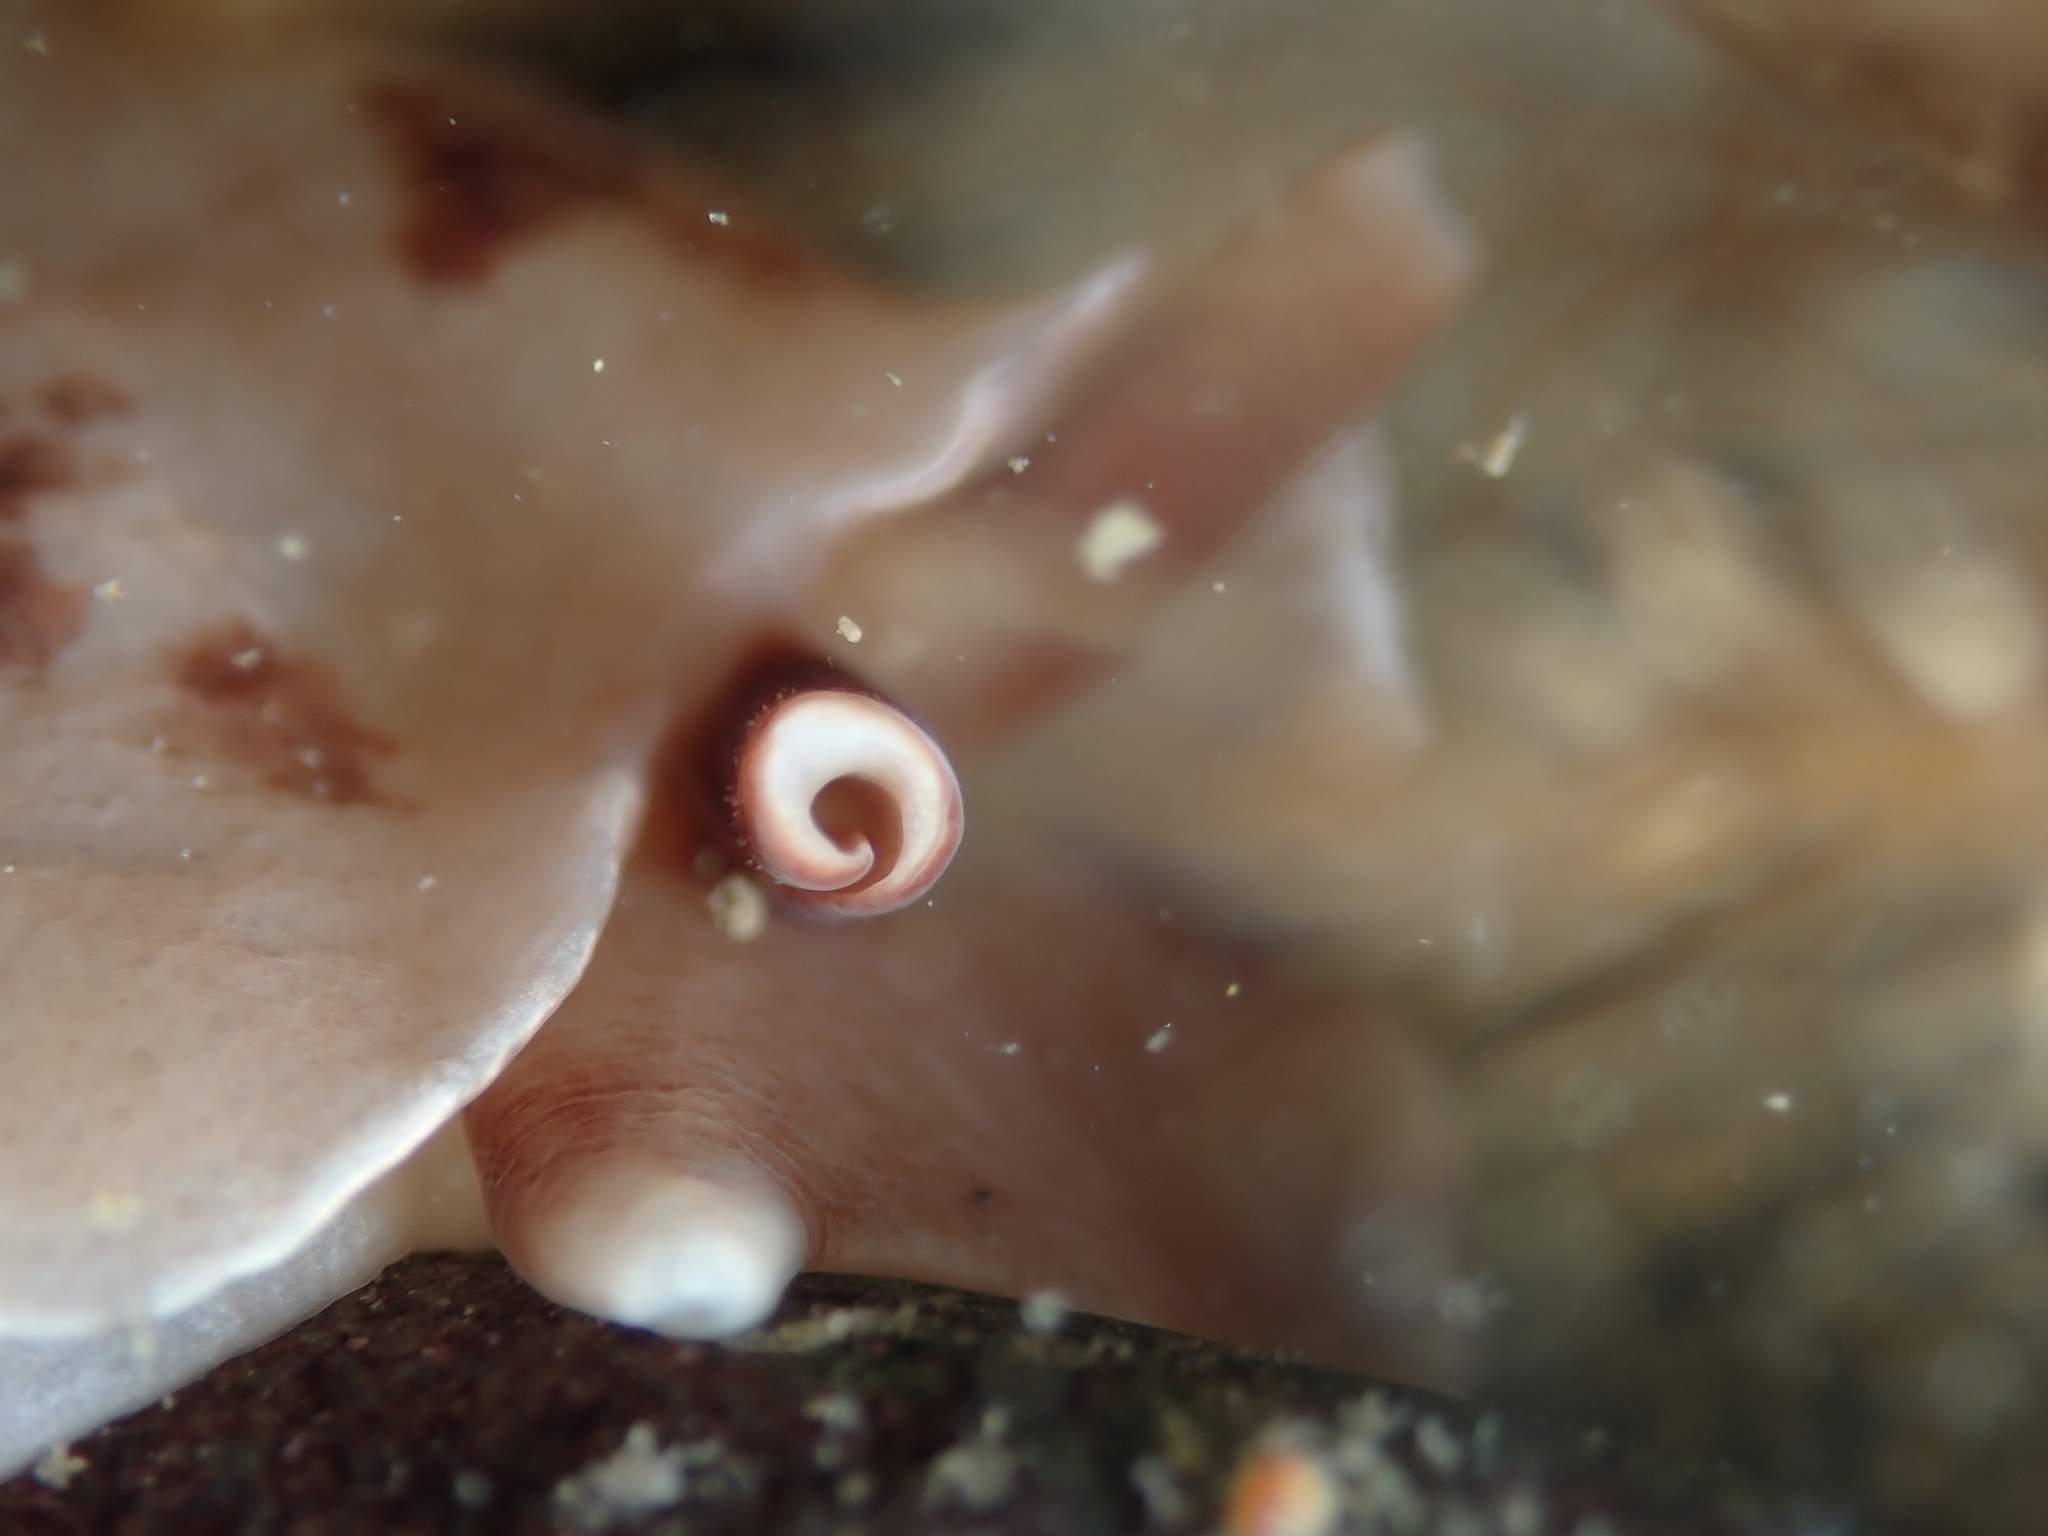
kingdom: Animalia
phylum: Mollusca
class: Gastropoda
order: Pleurobranchida
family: Pleurobranchidae
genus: Berthella
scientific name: Berthella ornata
